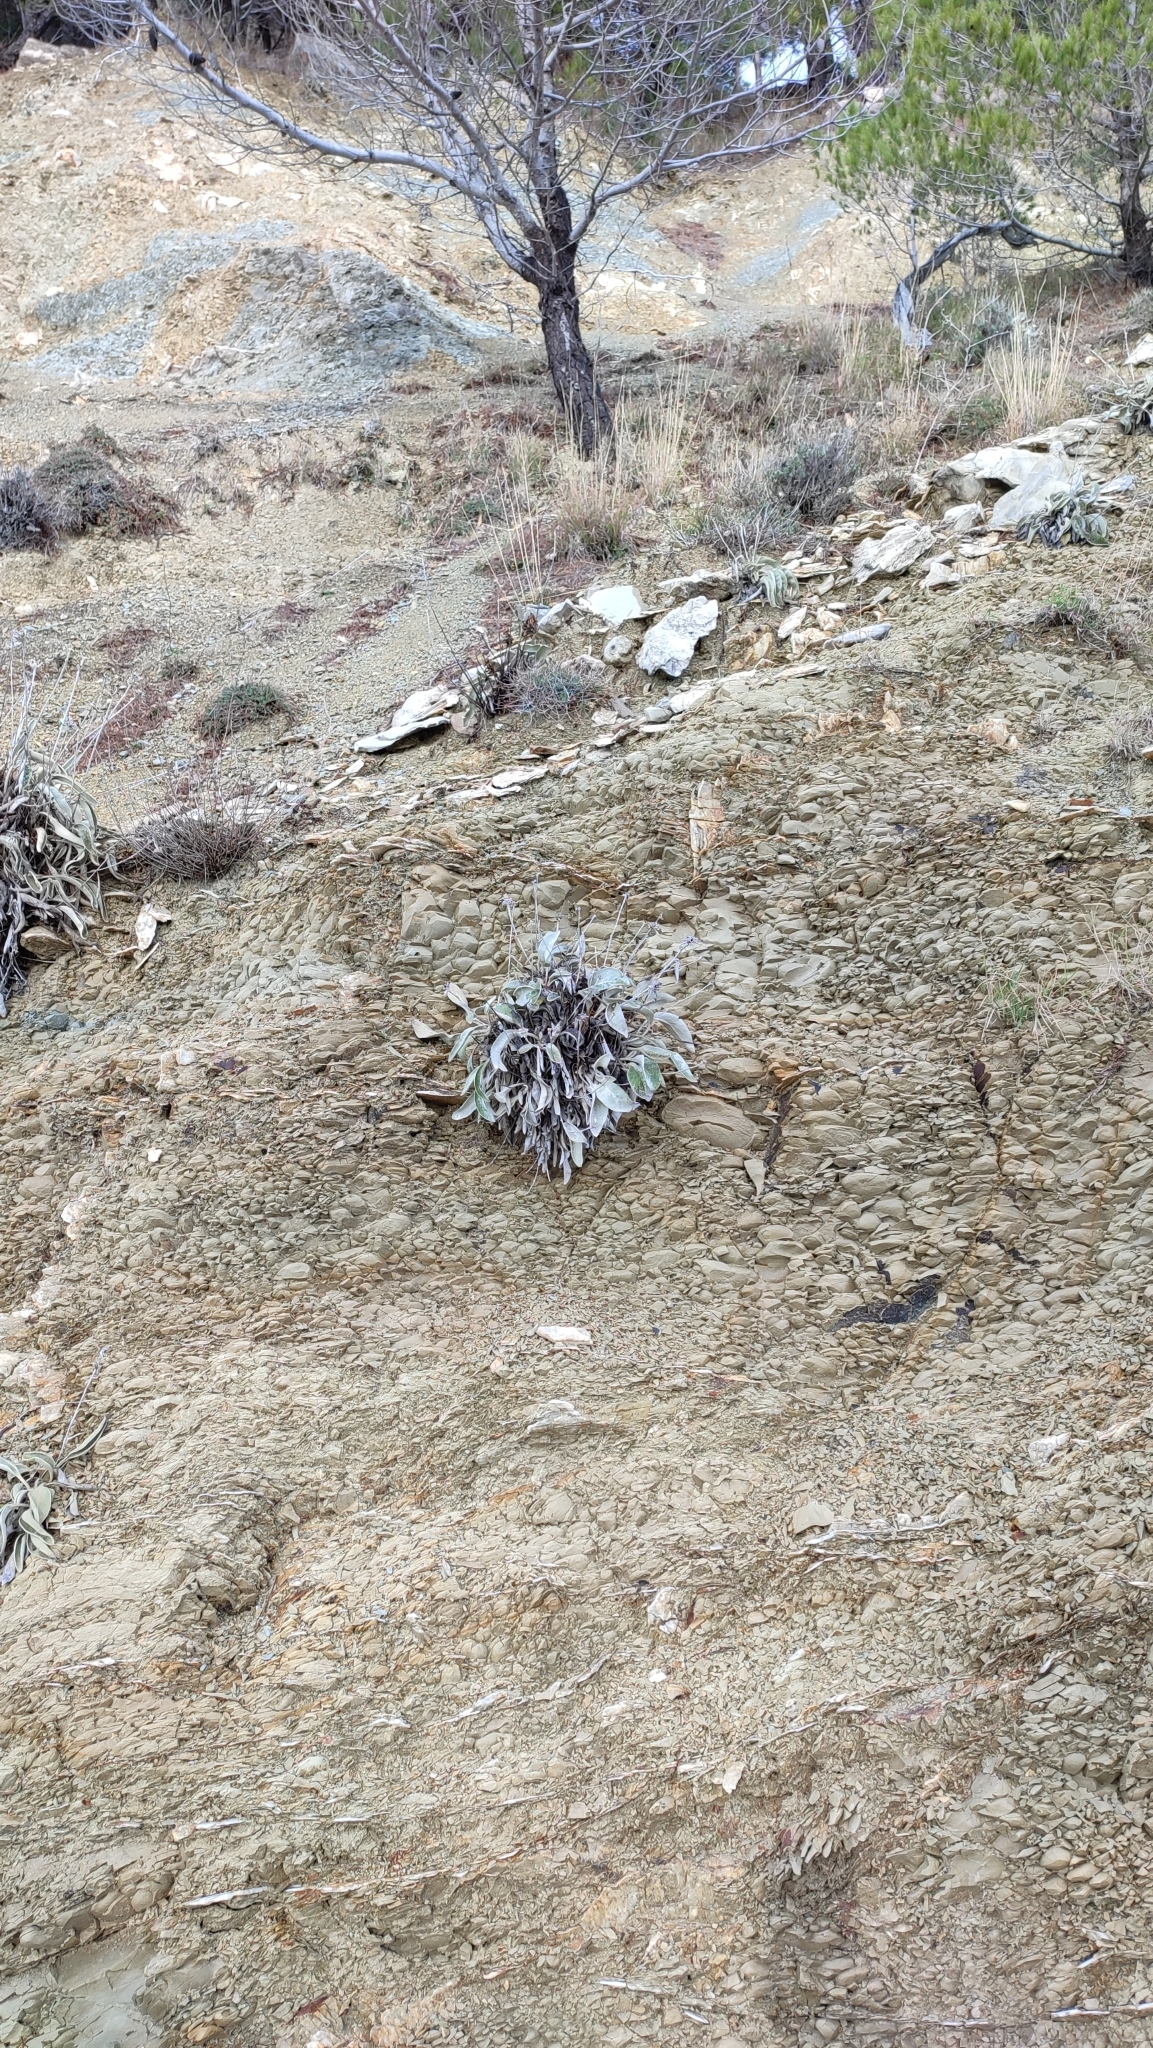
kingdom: Plantae
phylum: Tracheophyta
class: Magnoliopsida
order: Asterales
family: Asteraceae
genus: Pentanema
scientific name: Pentanema verbascifolium
